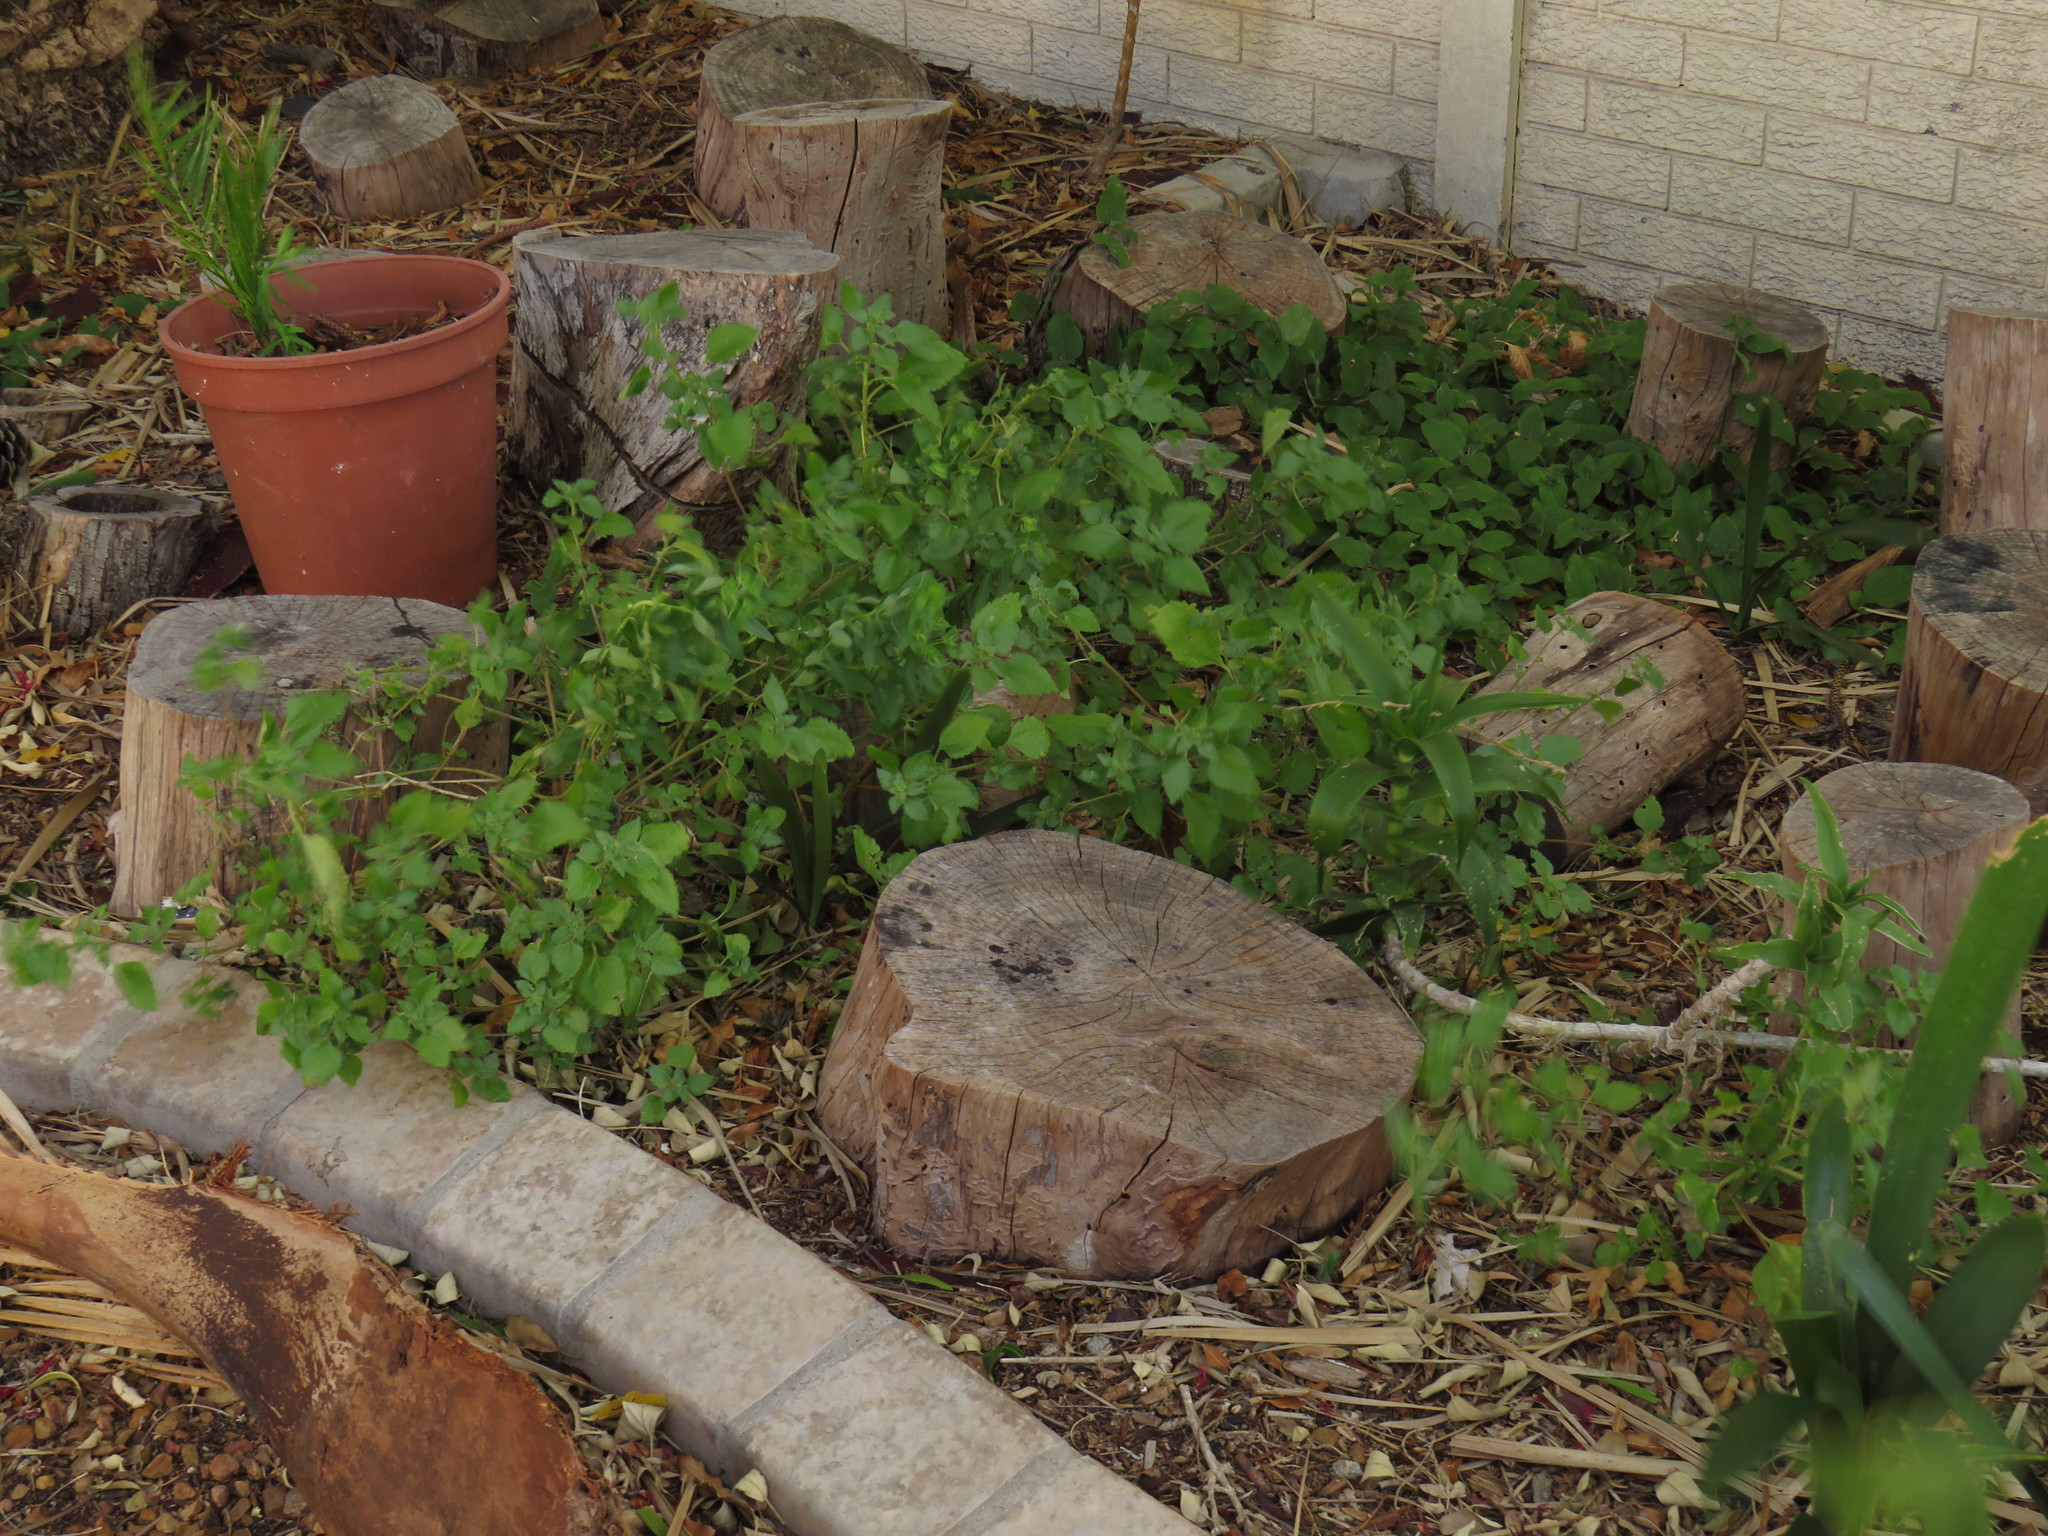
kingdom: Plantae
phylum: Tracheophyta
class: Magnoliopsida
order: Rosales
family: Urticaceae
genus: Didymodoxa
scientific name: Didymodoxa capensis
